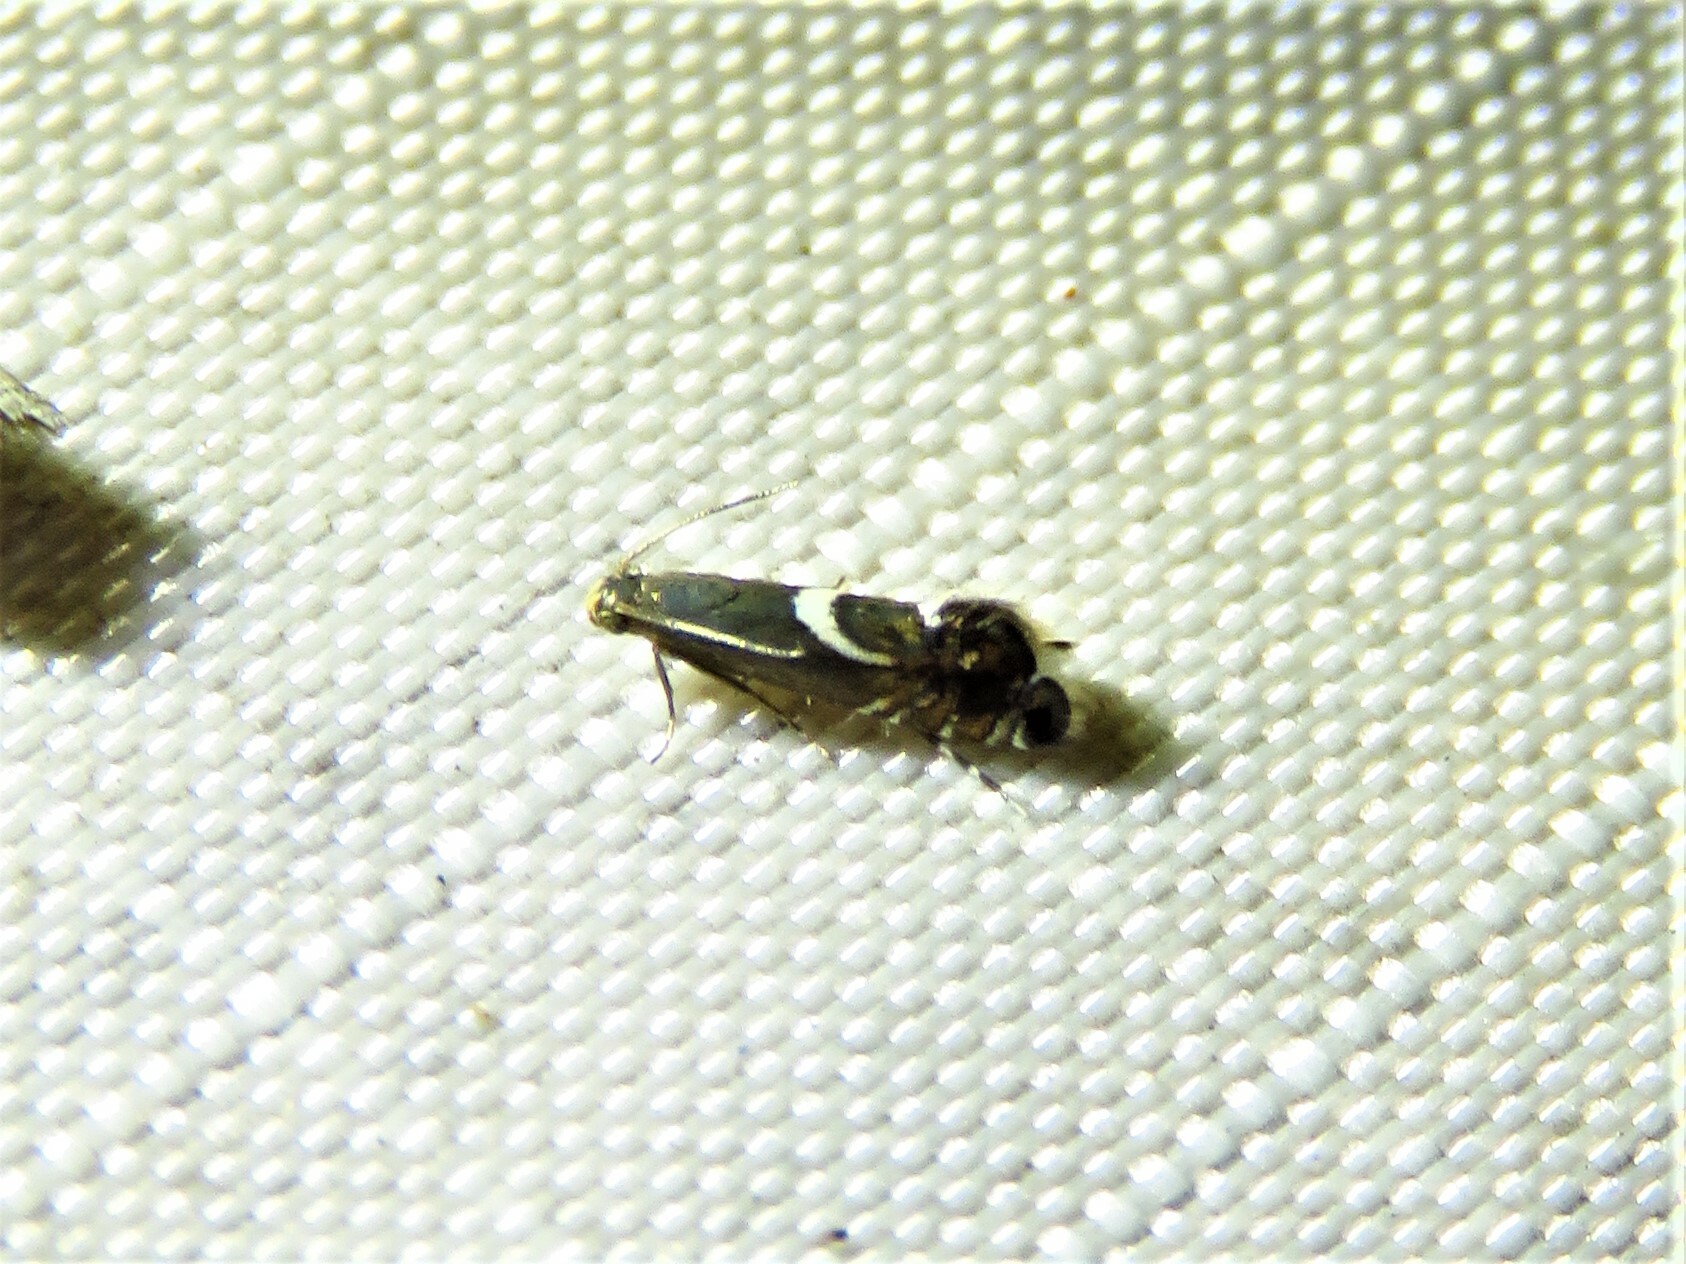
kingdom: Animalia
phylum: Arthropoda
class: Insecta
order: Lepidoptera
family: Glyphipterigidae
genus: Glyphipterix
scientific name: Glyphipterix Diploschizia impigritella
